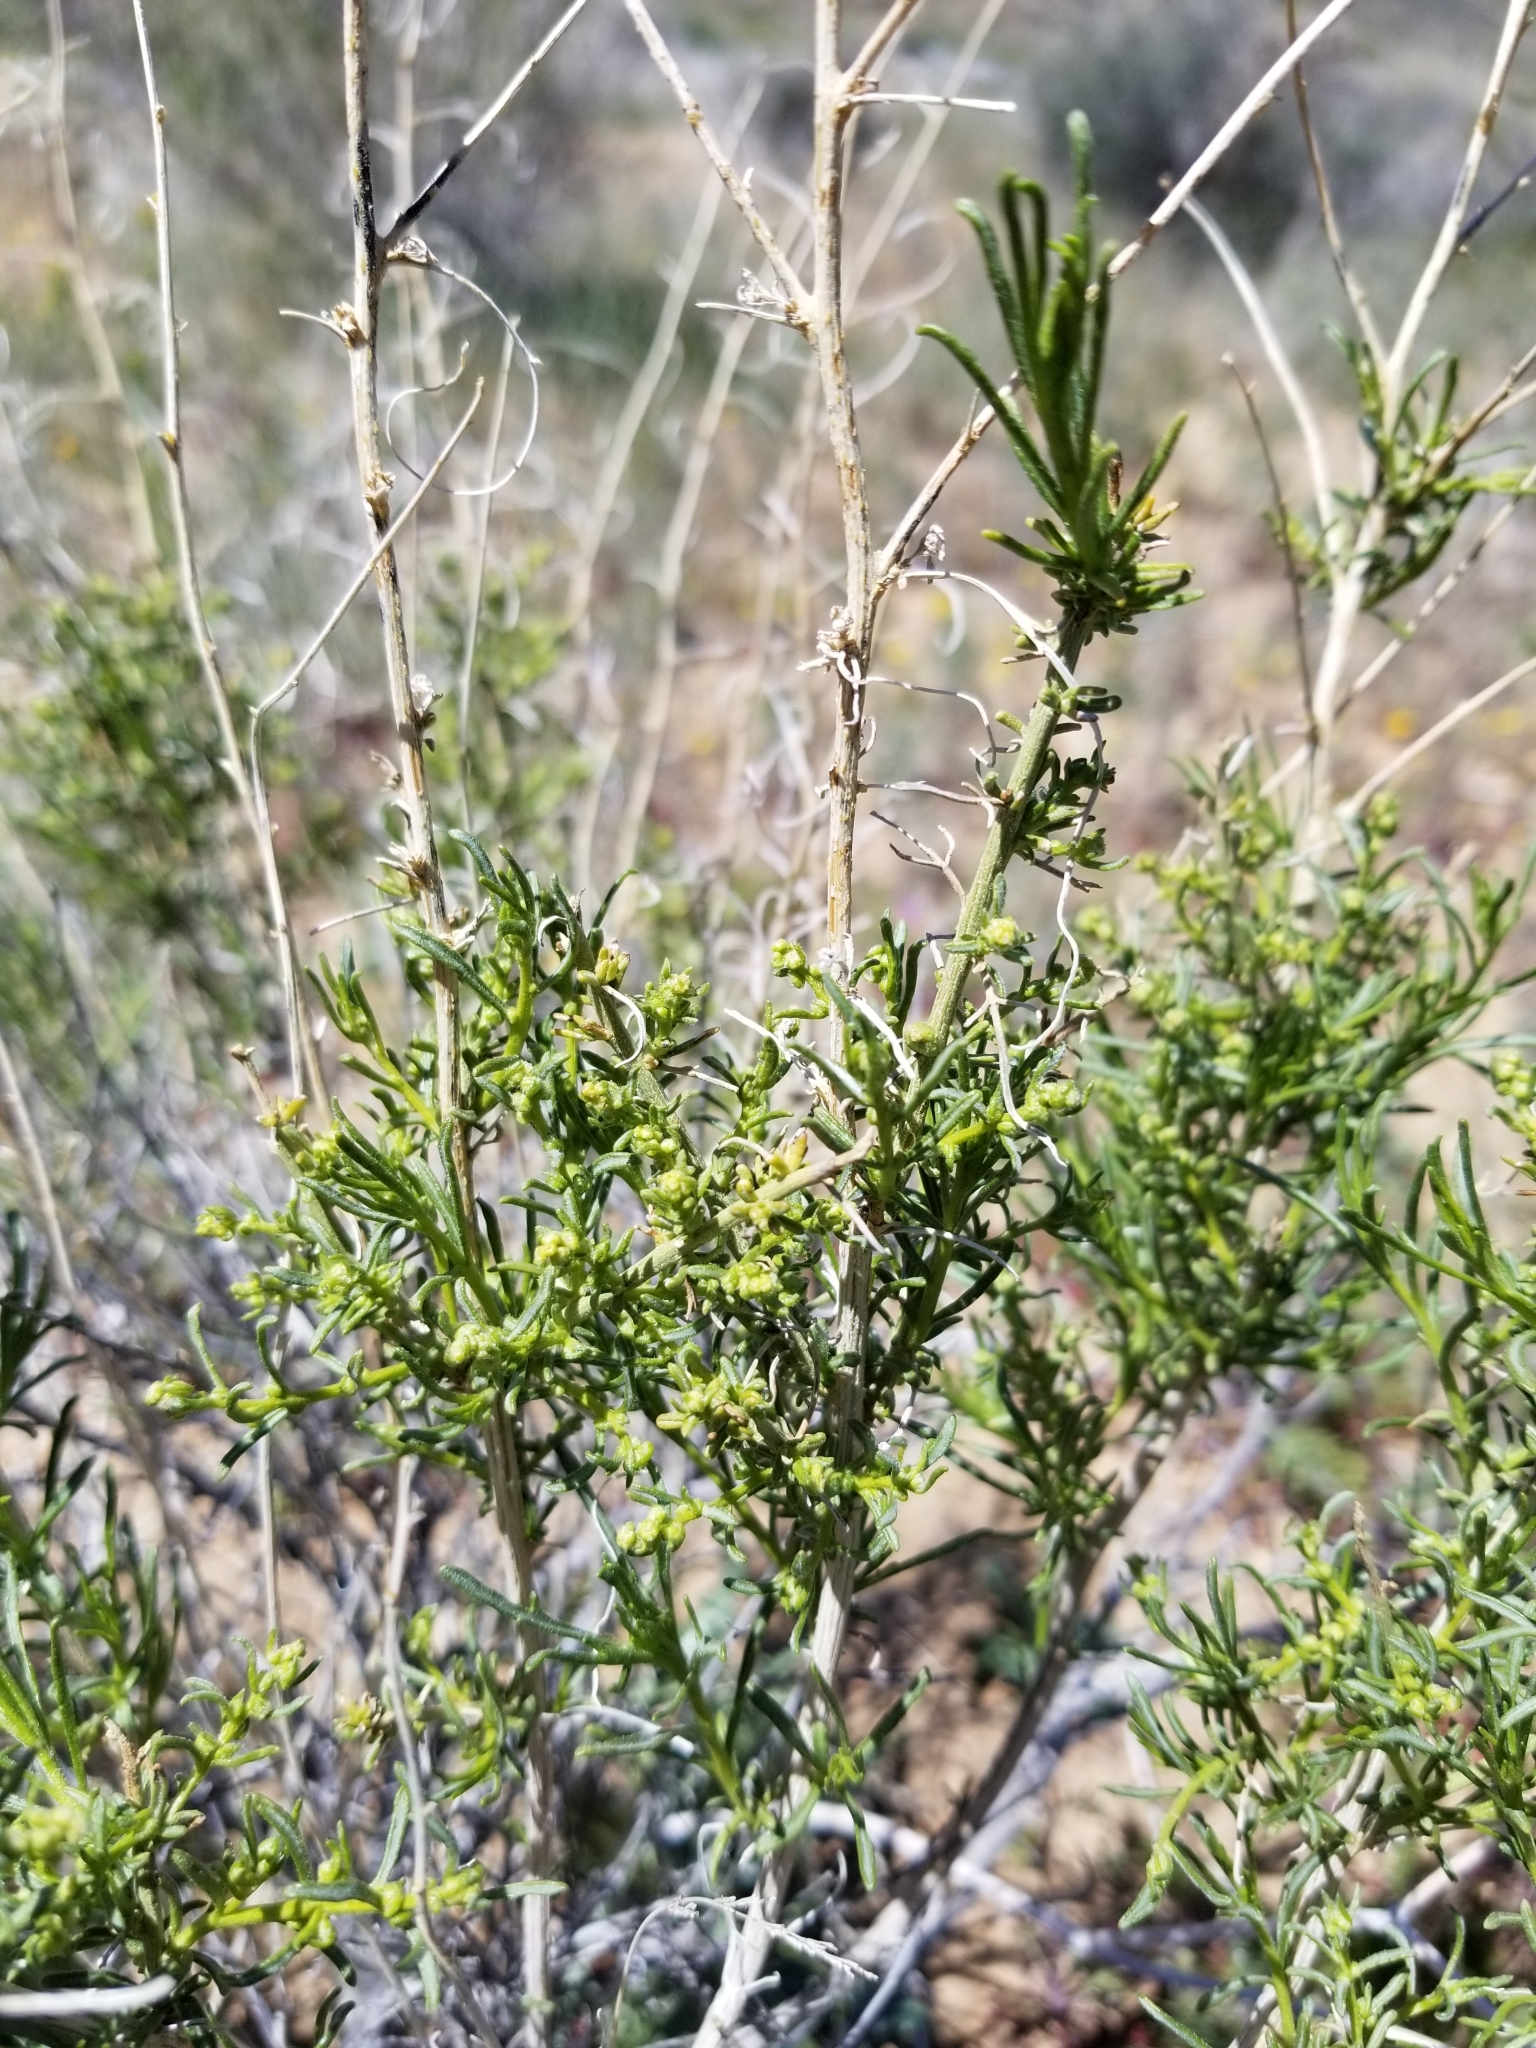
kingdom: Plantae
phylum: Tracheophyta
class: Magnoliopsida
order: Asterales
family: Asteraceae
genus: Ambrosia
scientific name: Ambrosia salsola
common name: Burrobrush
